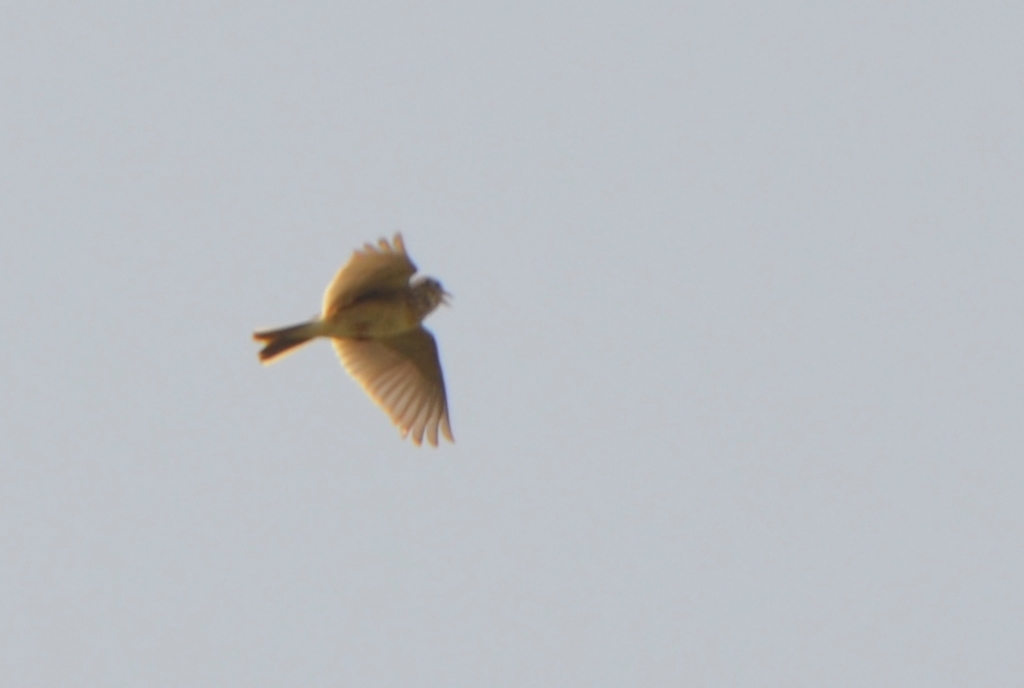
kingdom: Animalia
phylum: Chordata
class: Aves
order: Passeriformes
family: Alaudidae
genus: Alauda
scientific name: Alauda arvensis
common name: Eurasian skylark
